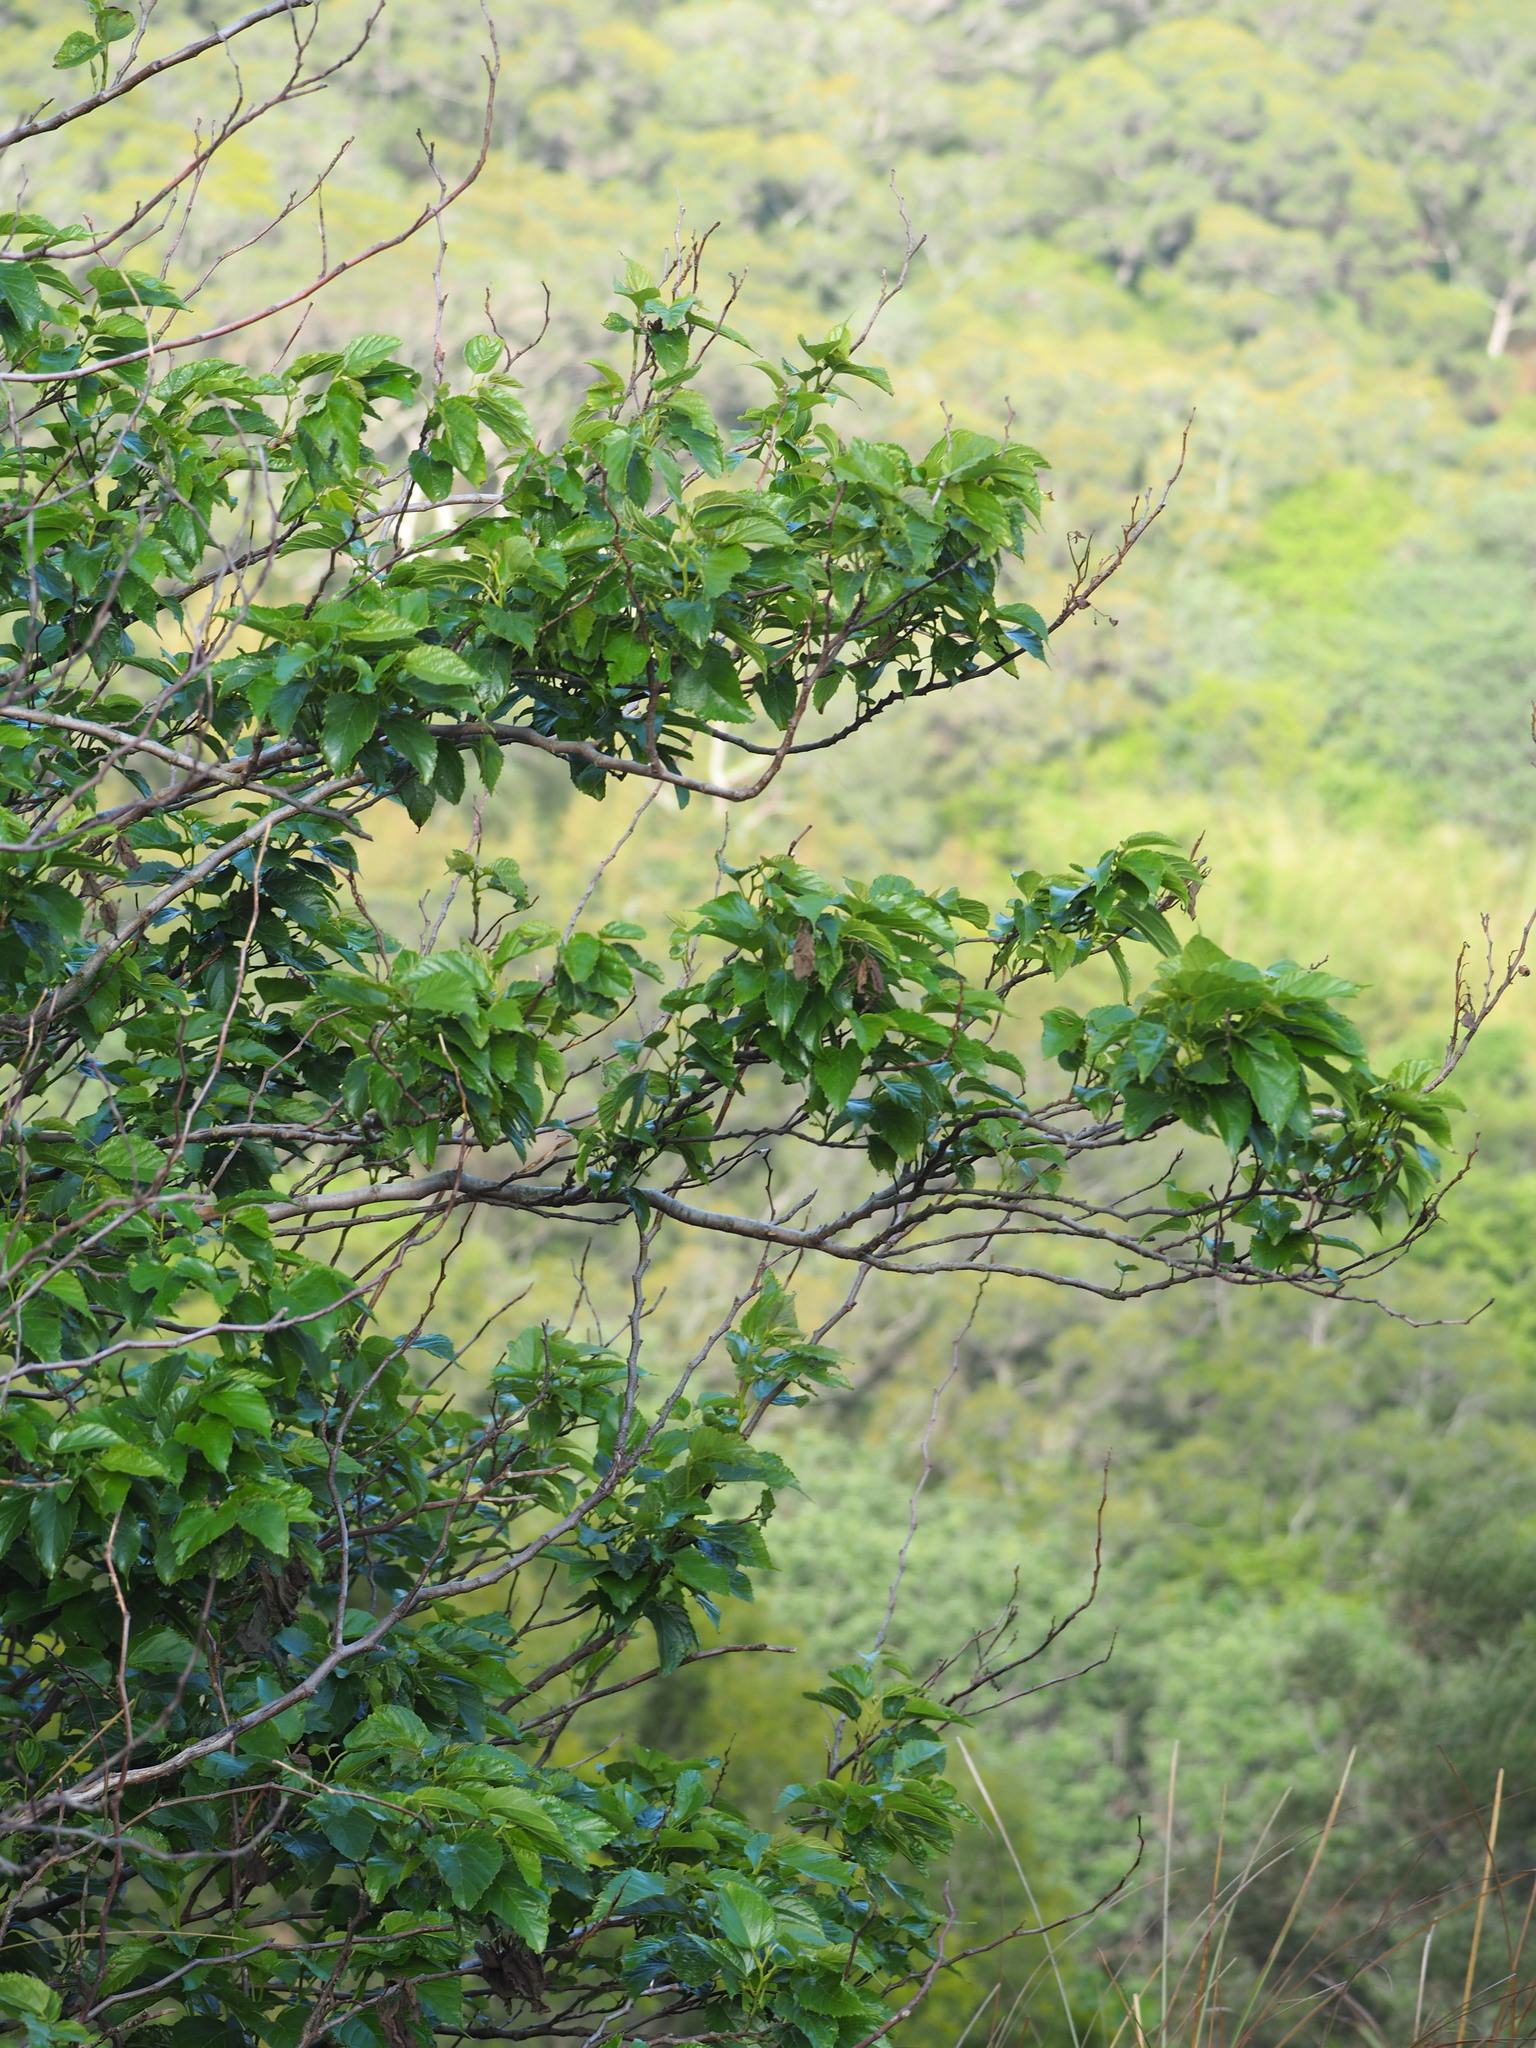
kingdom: Plantae
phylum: Tracheophyta
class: Magnoliopsida
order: Rosales
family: Moraceae
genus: Morus
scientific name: Morus indica
